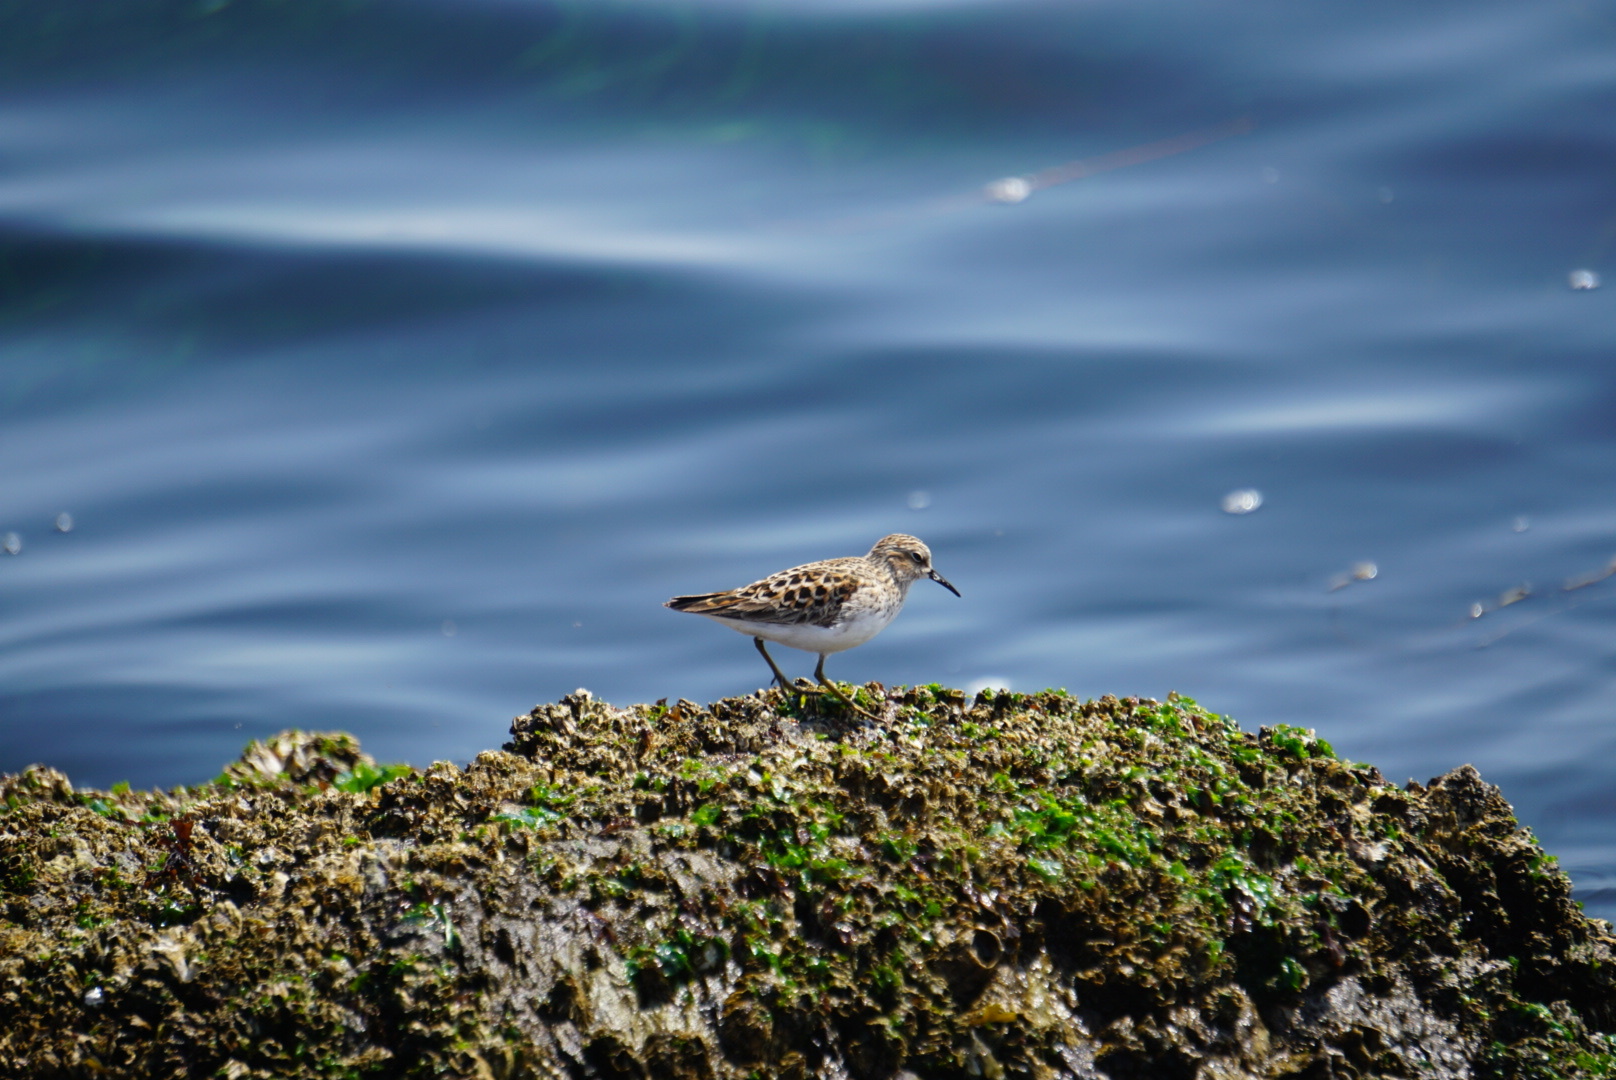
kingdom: Animalia
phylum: Chordata
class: Aves
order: Charadriiformes
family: Scolopacidae
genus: Calidris
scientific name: Calidris minutilla
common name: Least sandpiper
